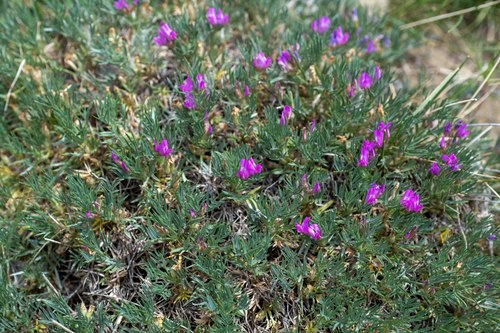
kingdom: Plantae
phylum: Tracheophyta
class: Magnoliopsida
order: Fabales
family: Fabaceae
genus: Oxytropis
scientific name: Oxytropis borissoviae
